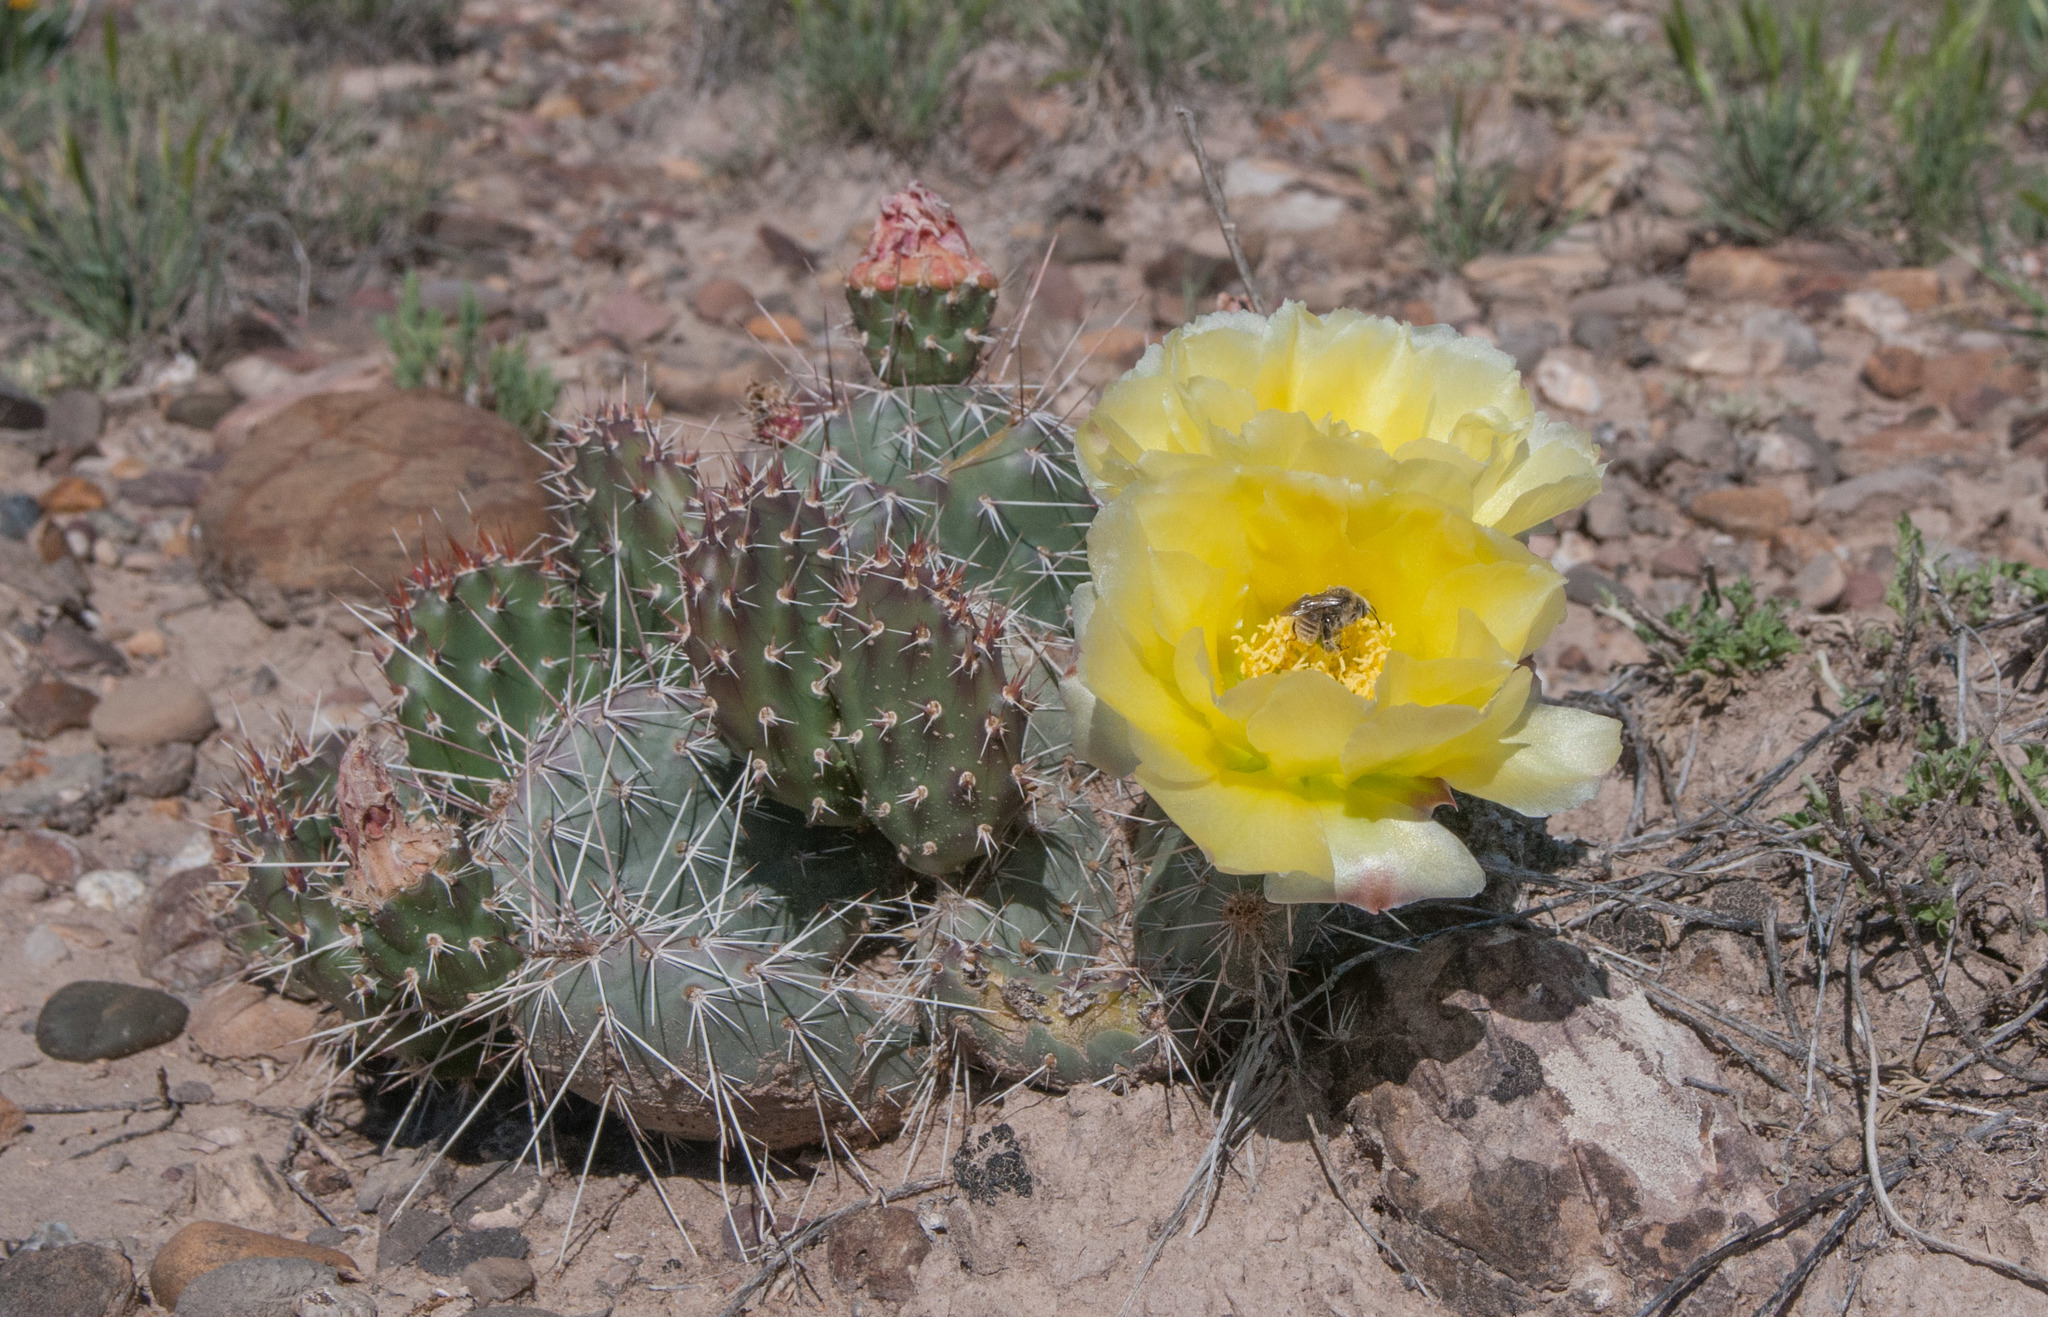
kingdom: Plantae
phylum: Tracheophyta
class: Magnoliopsida
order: Caryophyllales
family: Cactaceae
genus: Opuntia
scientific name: Opuntia polyacantha
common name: Plains prickly-pear
